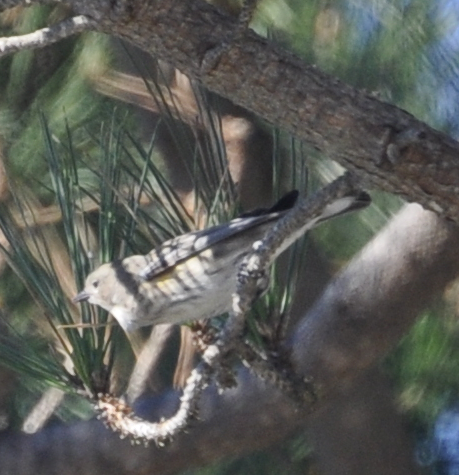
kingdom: Animalia
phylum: Chordata
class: Aves
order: Passeriformes
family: Parulidae
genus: Setophaga
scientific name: Setophaga coronata
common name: Myrtle warbler
